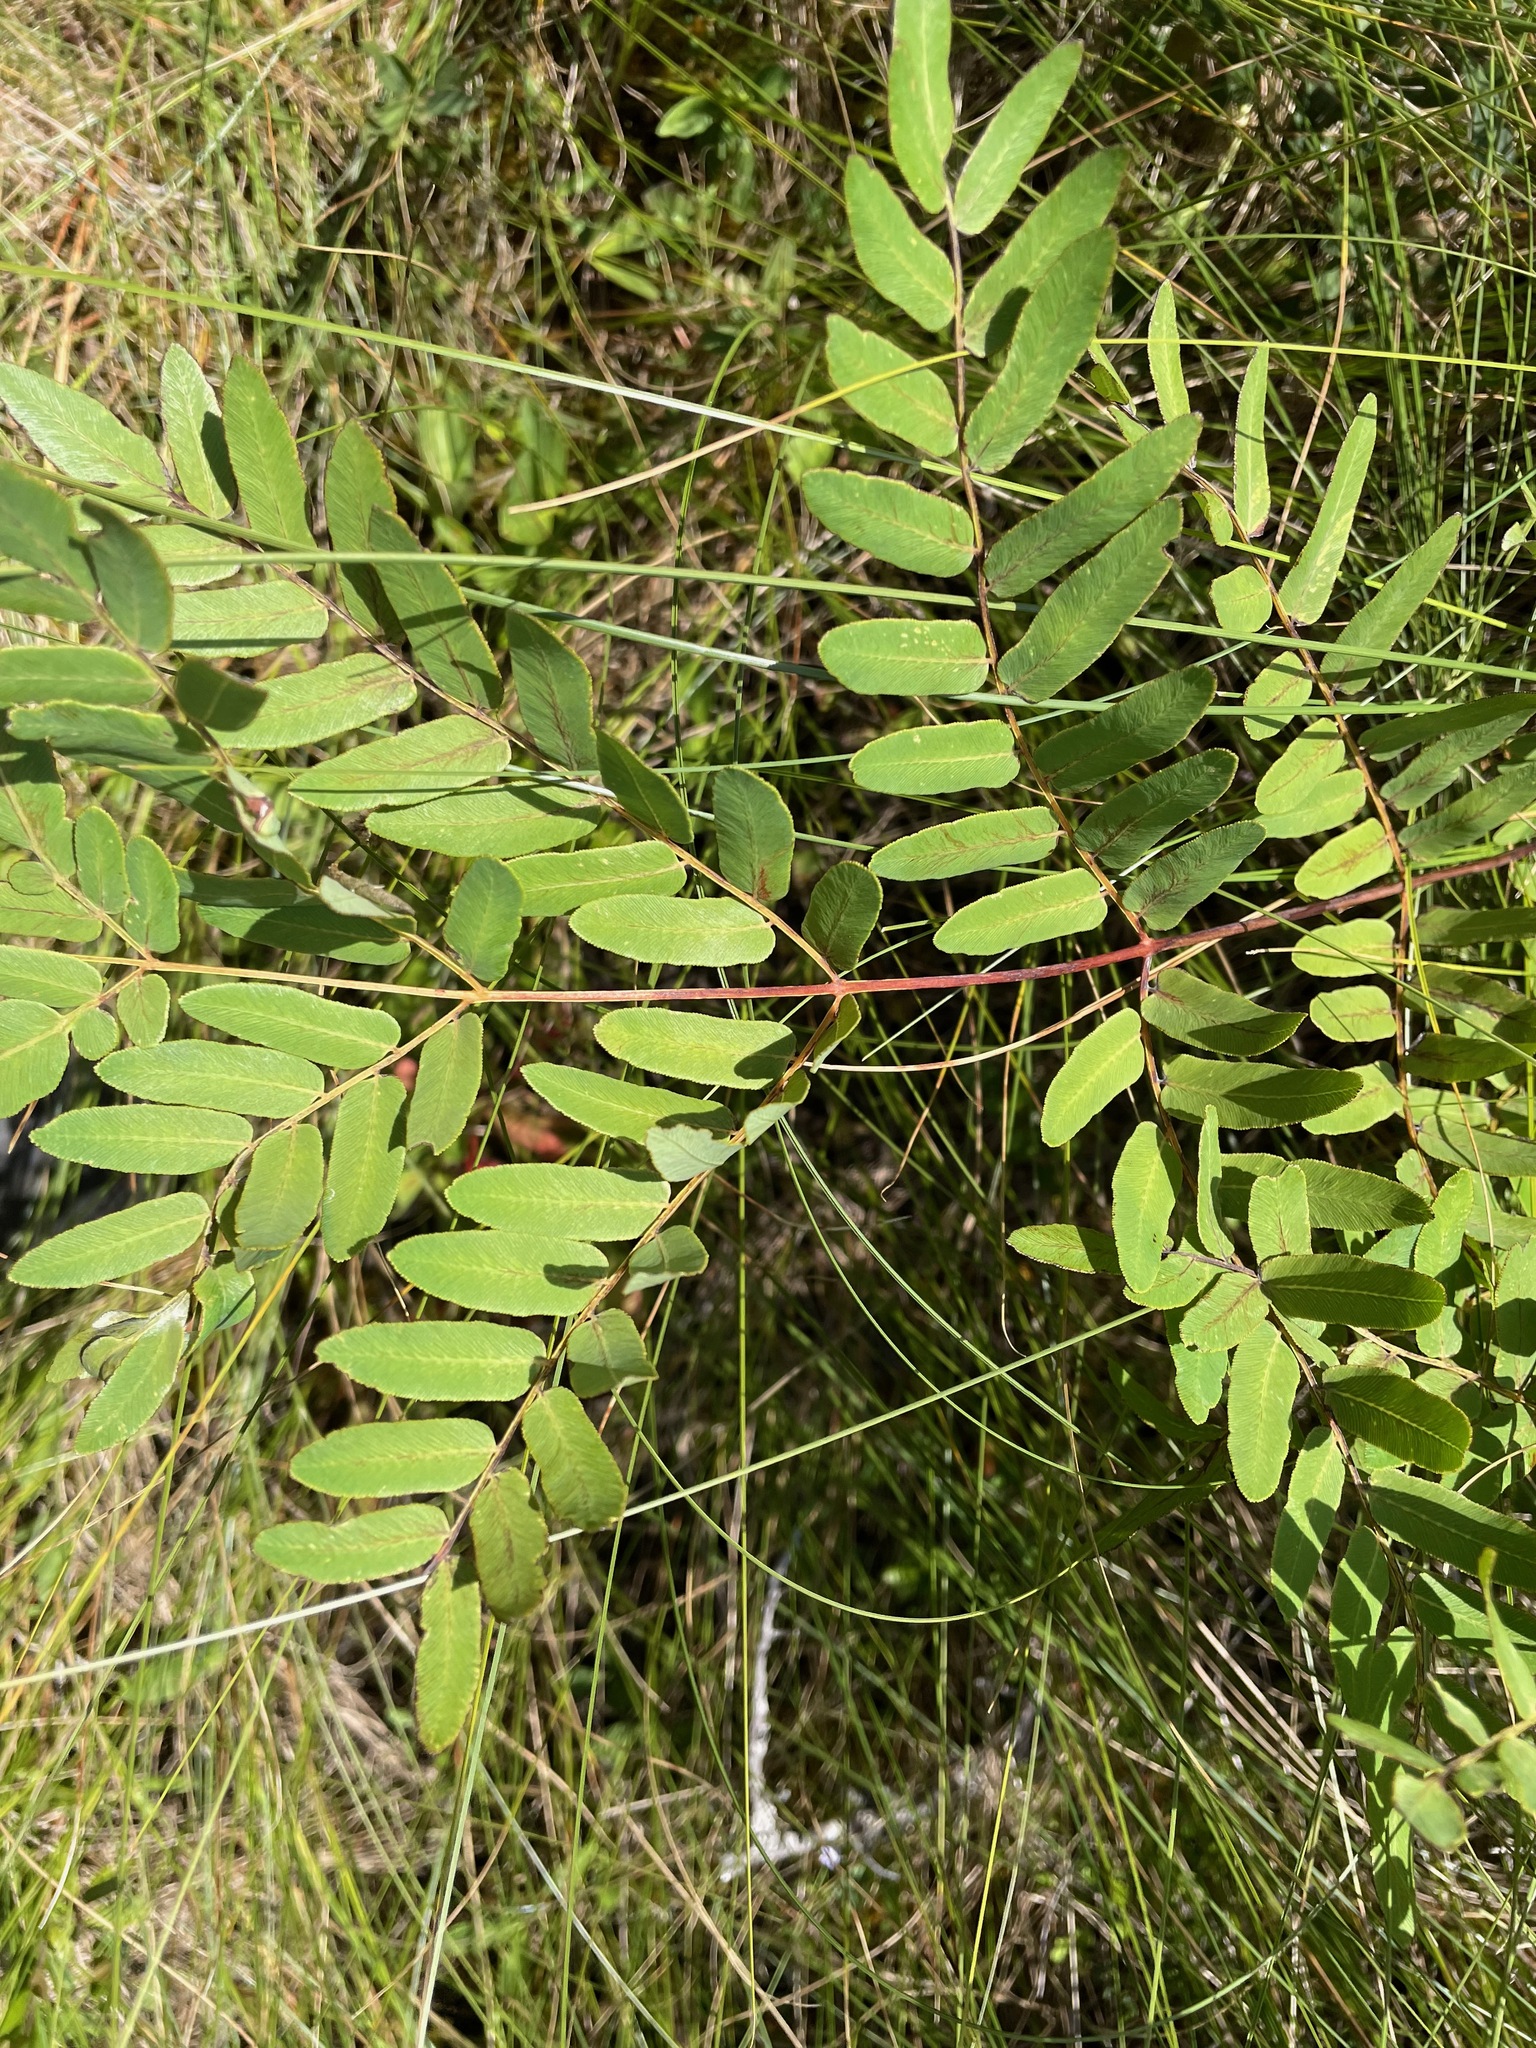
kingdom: Plantae
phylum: Tracheophyta
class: Polypodiopsida
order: Osmundales
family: Osmundaceae
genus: Osmunda
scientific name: Osmunda spectabilis
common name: American royal fern
